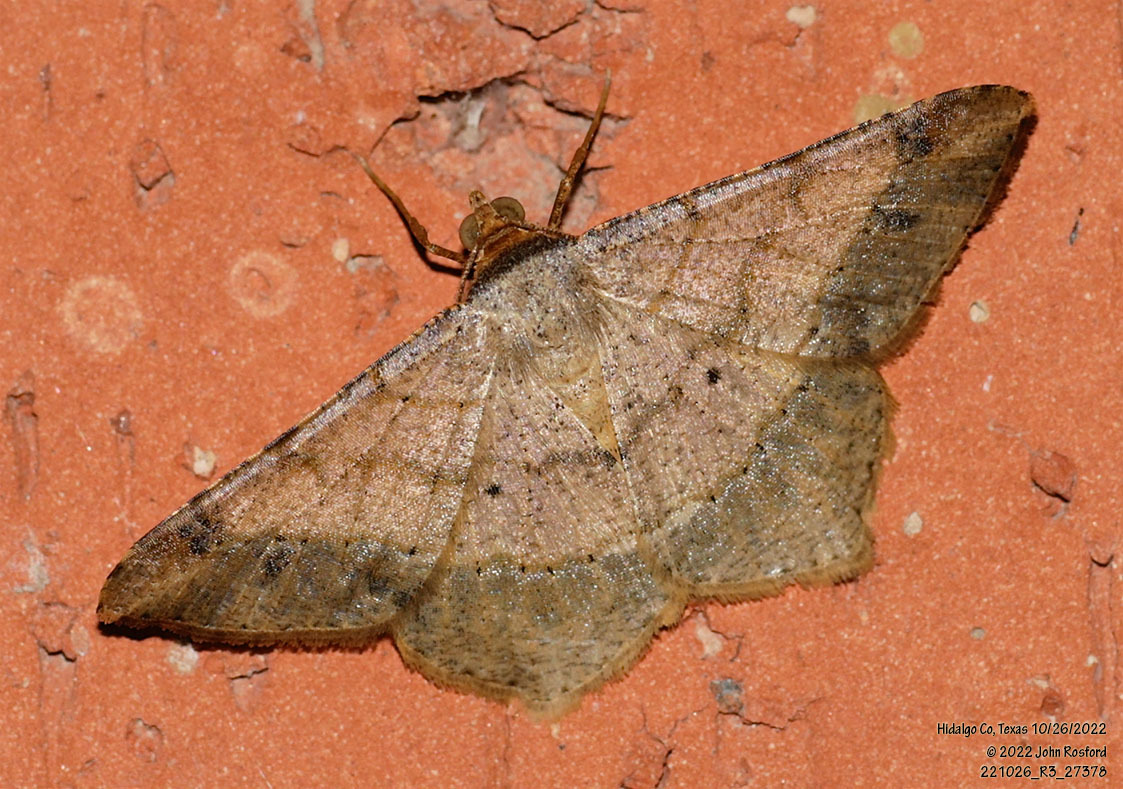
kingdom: Animalia
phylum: Arthropoda
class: Insecta
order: Lepidoptera
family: Geometridae
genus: Macaria
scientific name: Macaria abydata
